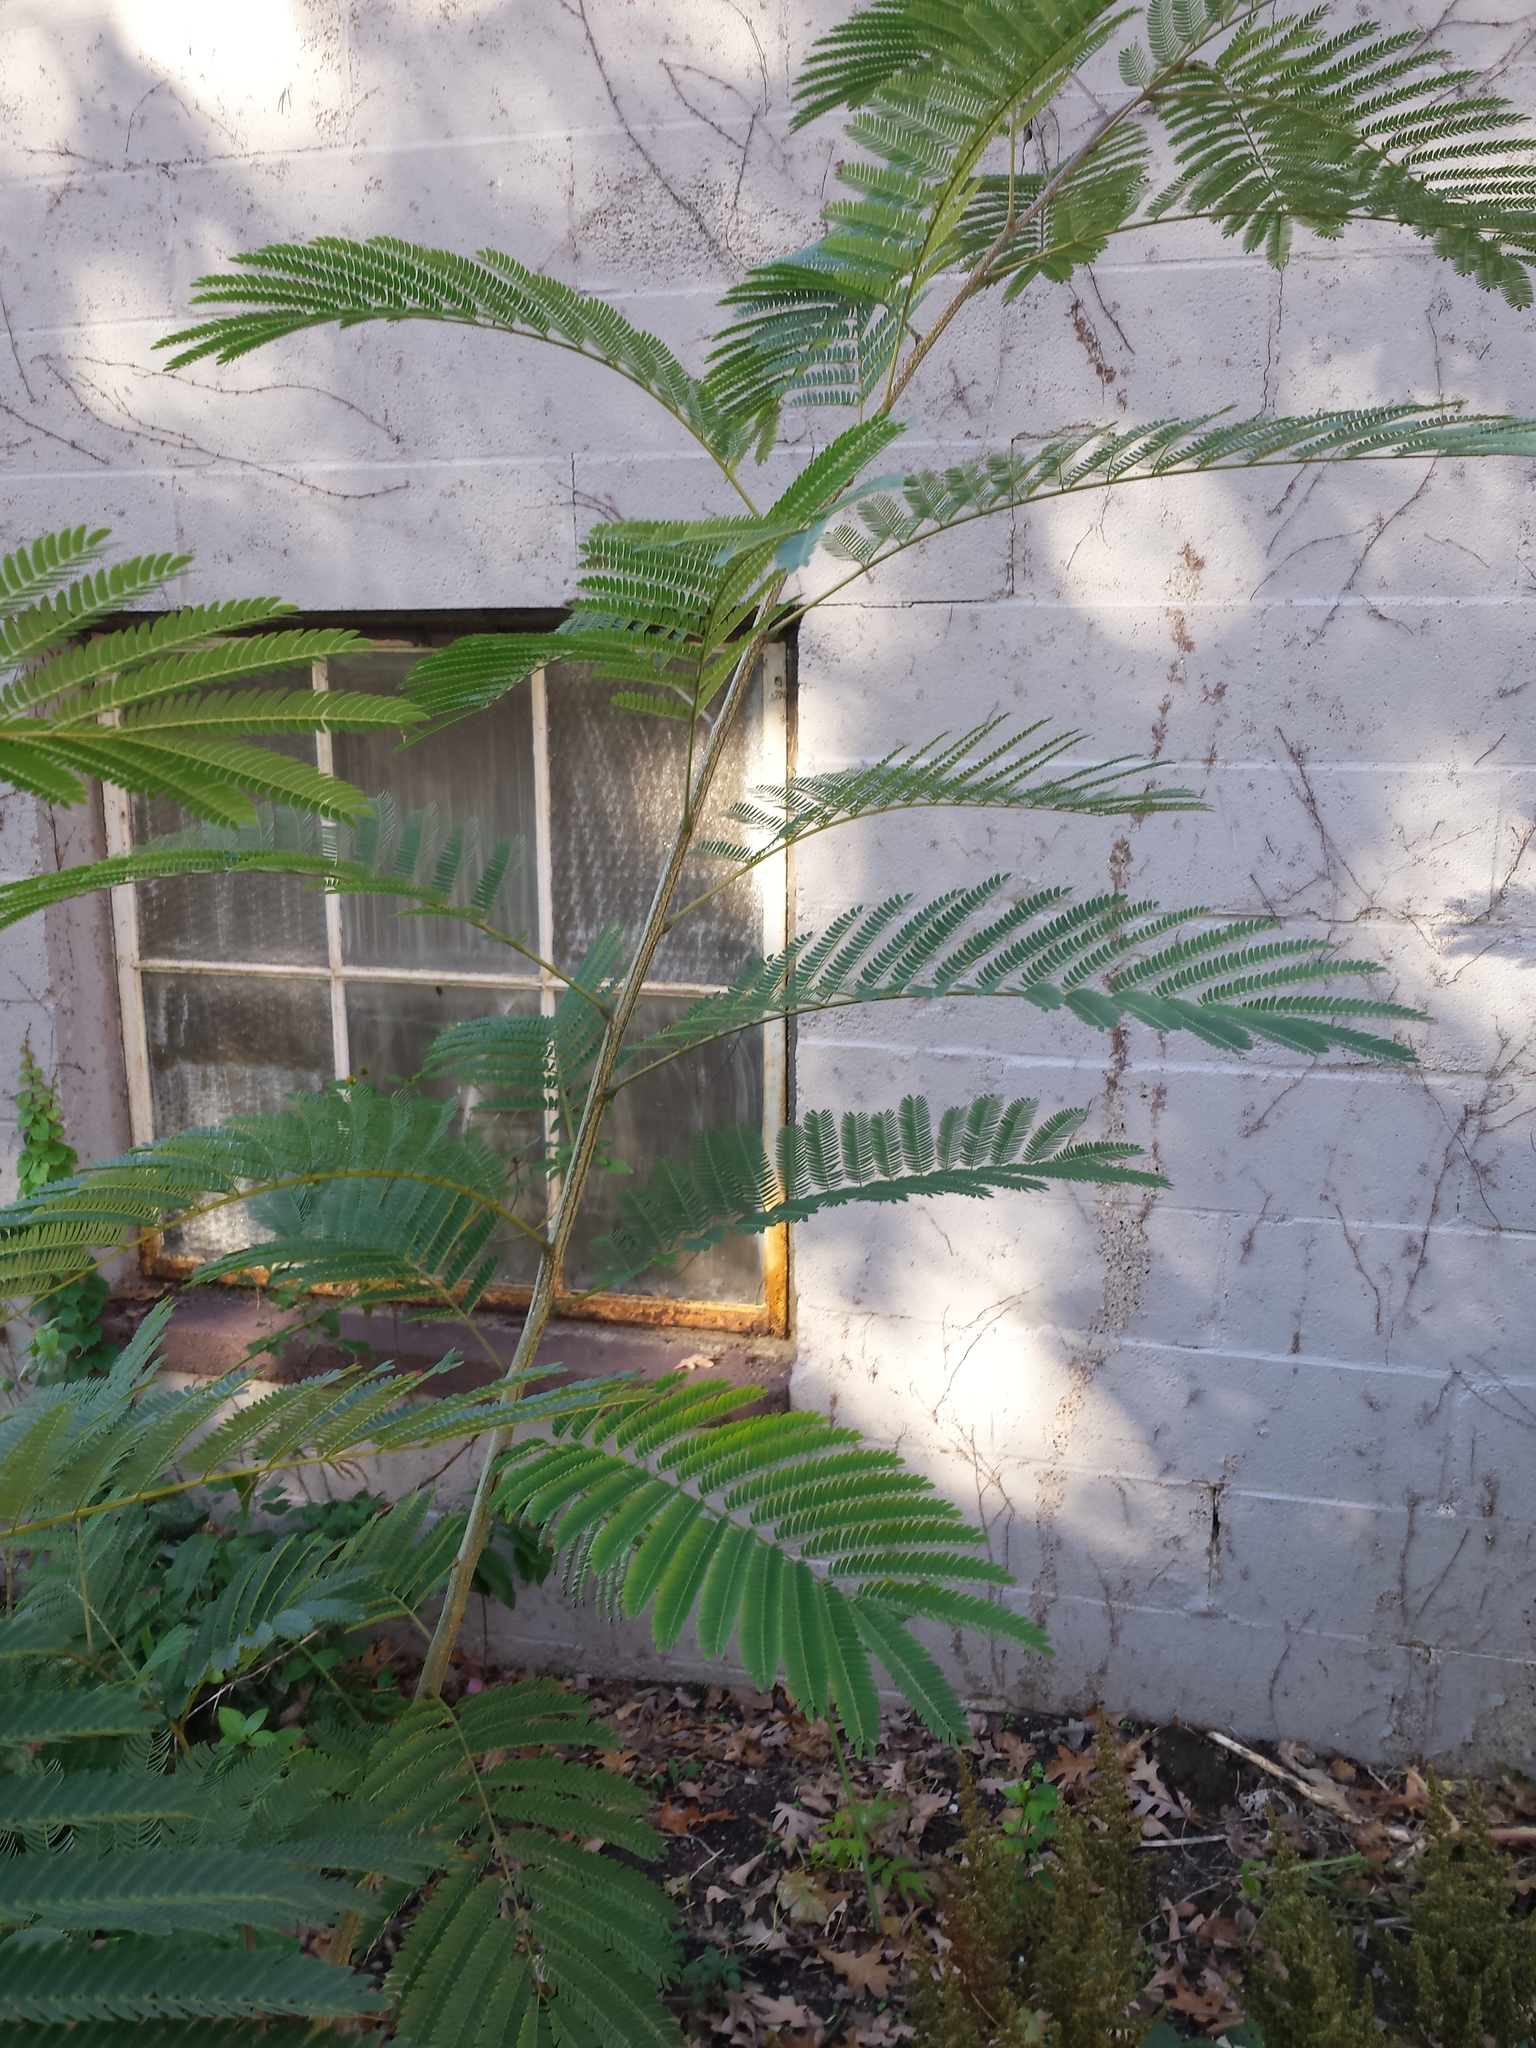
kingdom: Plantae
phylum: Tracheophyta
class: Magnoliopsida
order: Fabales
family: Fabaceae
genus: Albizia
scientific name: Albizia julibrissin
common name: Silktree
